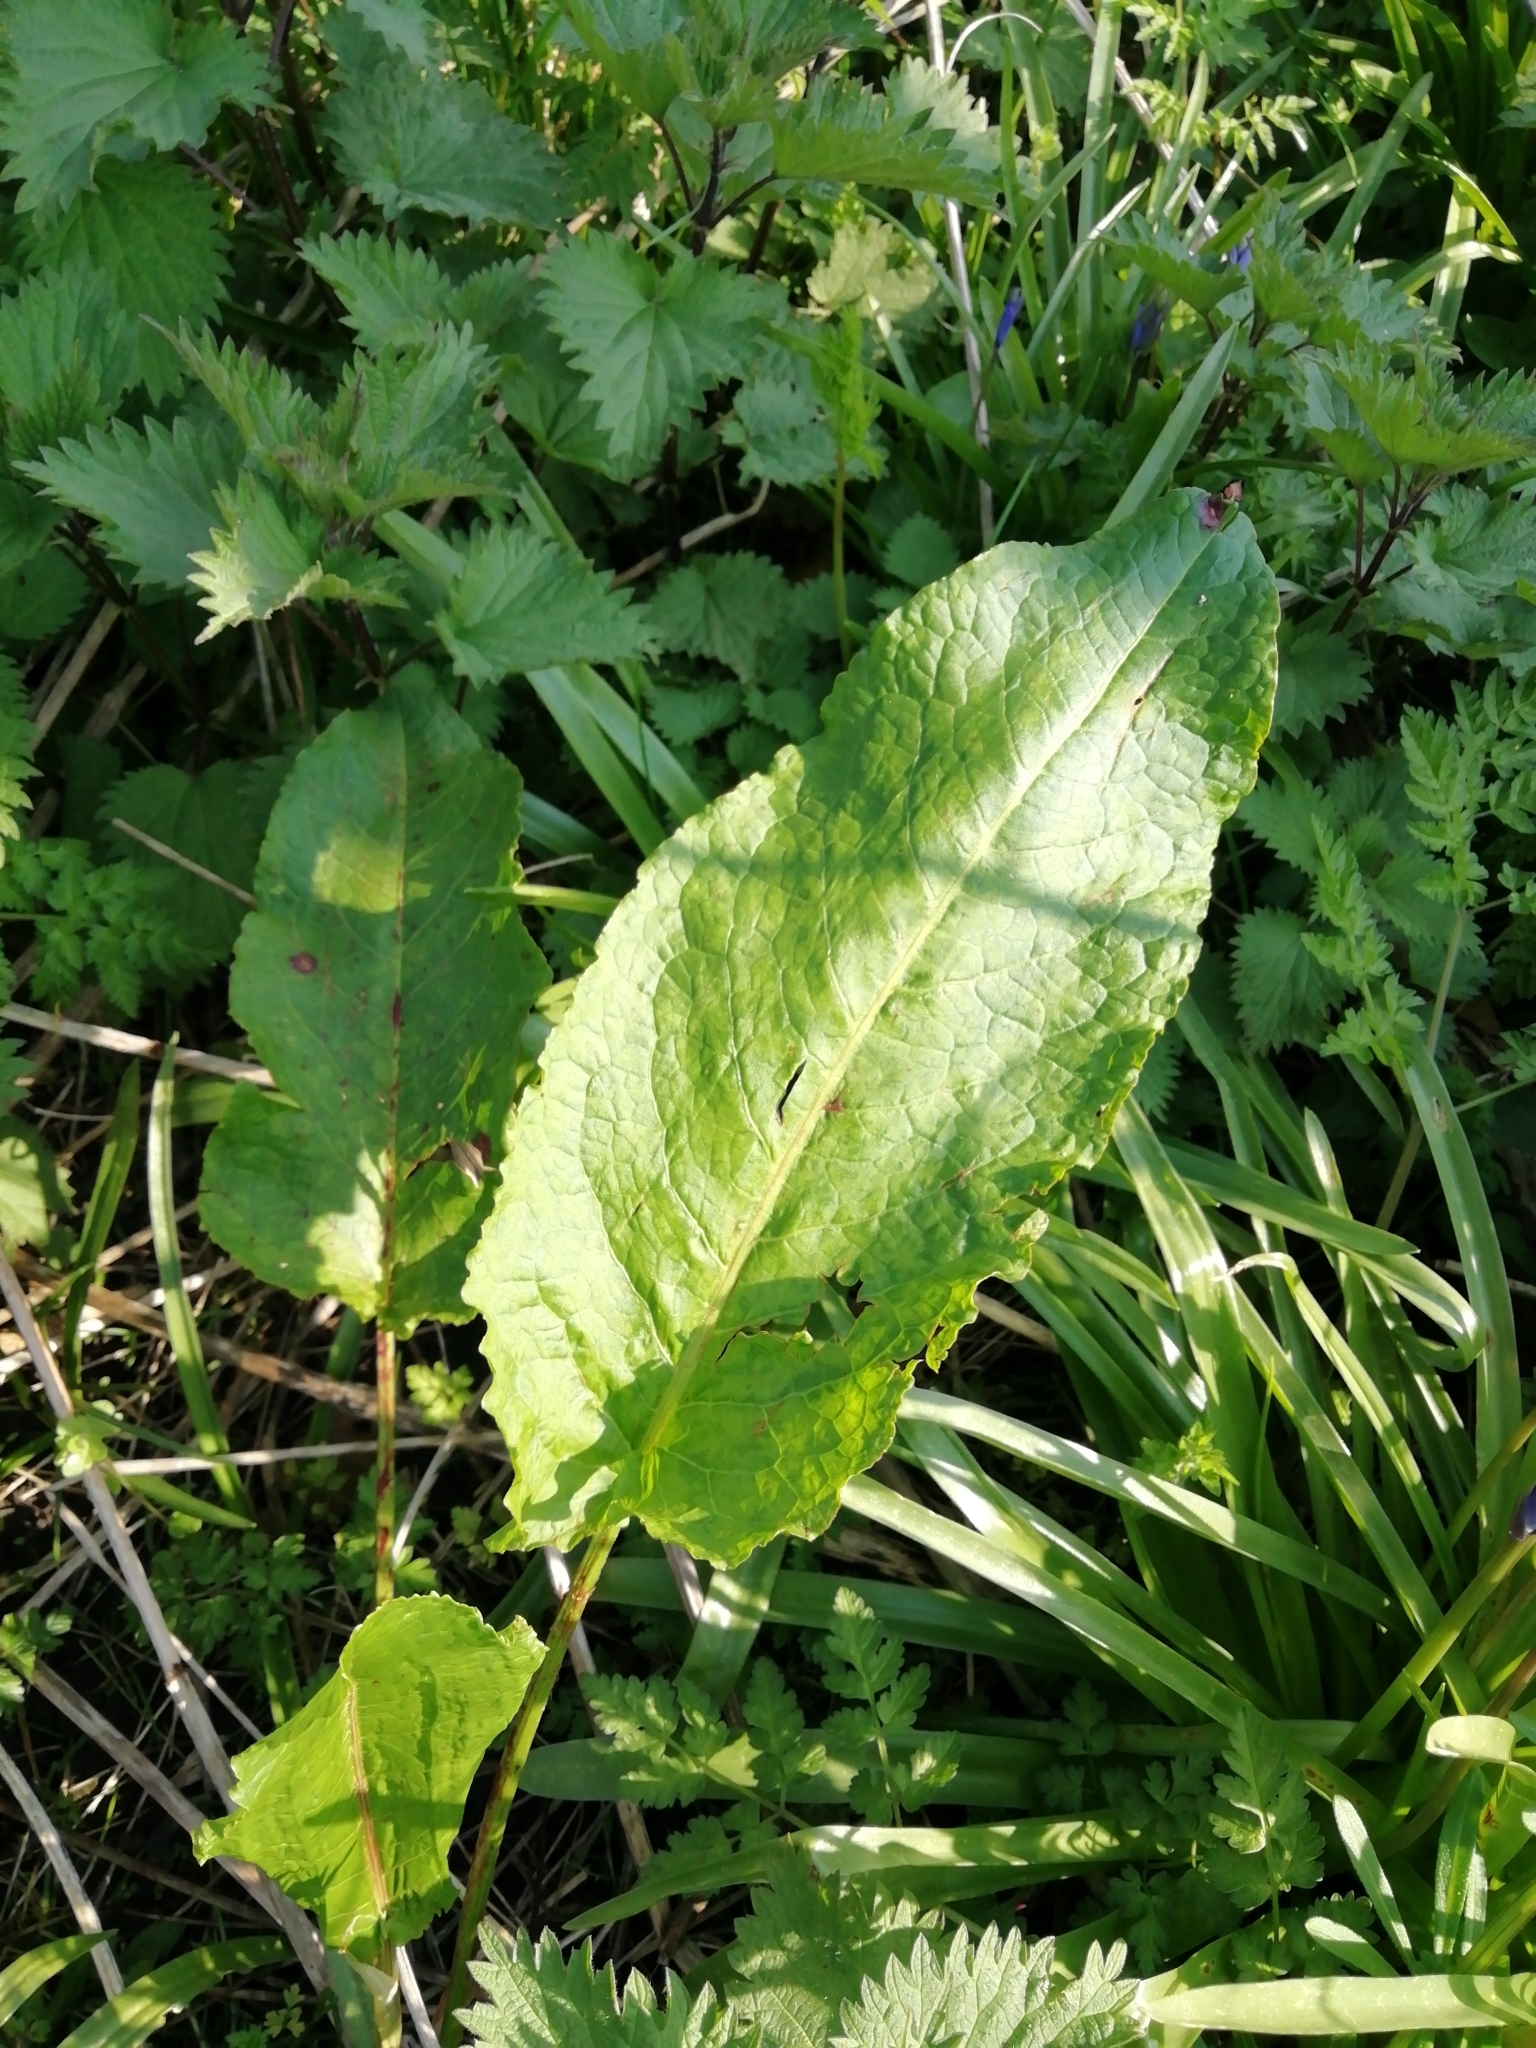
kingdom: Plantae
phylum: Tracheophyta
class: Magnoliopsida
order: Caryophyllales
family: Polygonaceae
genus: Rumex
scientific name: Rumex obtusifolius
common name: Bitter dock
